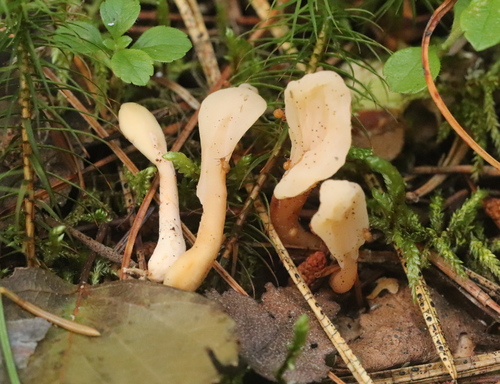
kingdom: Fungi
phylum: Ascomycota
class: Leotiomycetes
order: Rhytismatales
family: Cudoniaceae
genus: Spathularia
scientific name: Spathularia rufa
